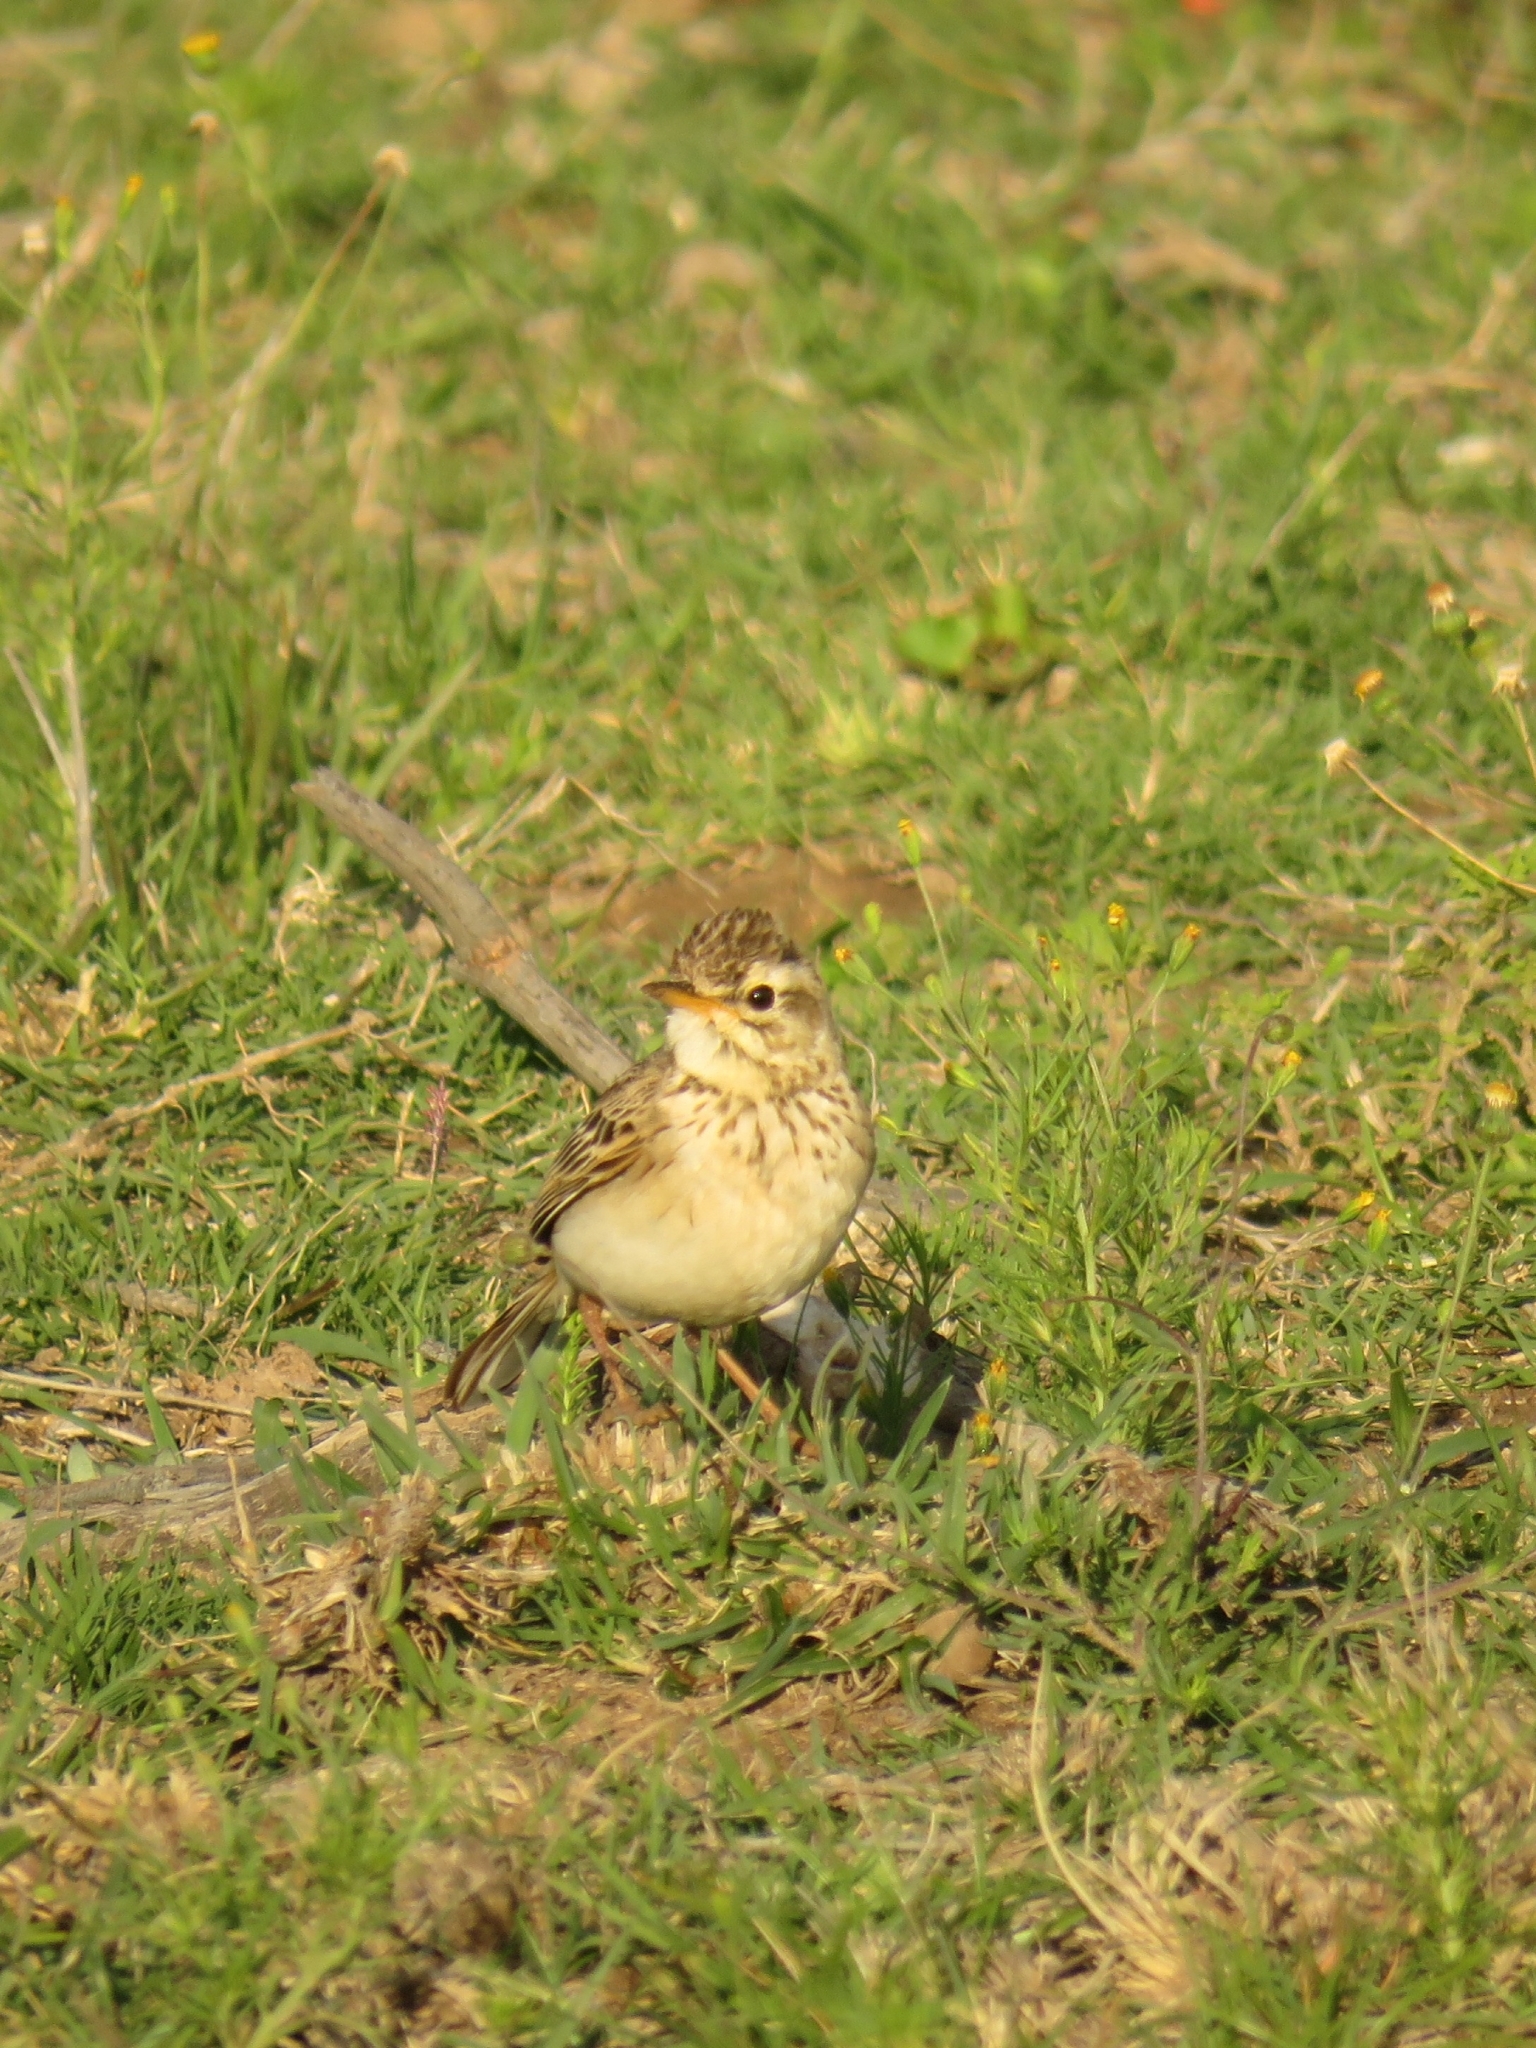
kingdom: Animalia
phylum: Chordata
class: Aves
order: Passeriformes
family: Motacillidae
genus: Anthus
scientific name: Anthus cinnamomeus
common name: African pipit
